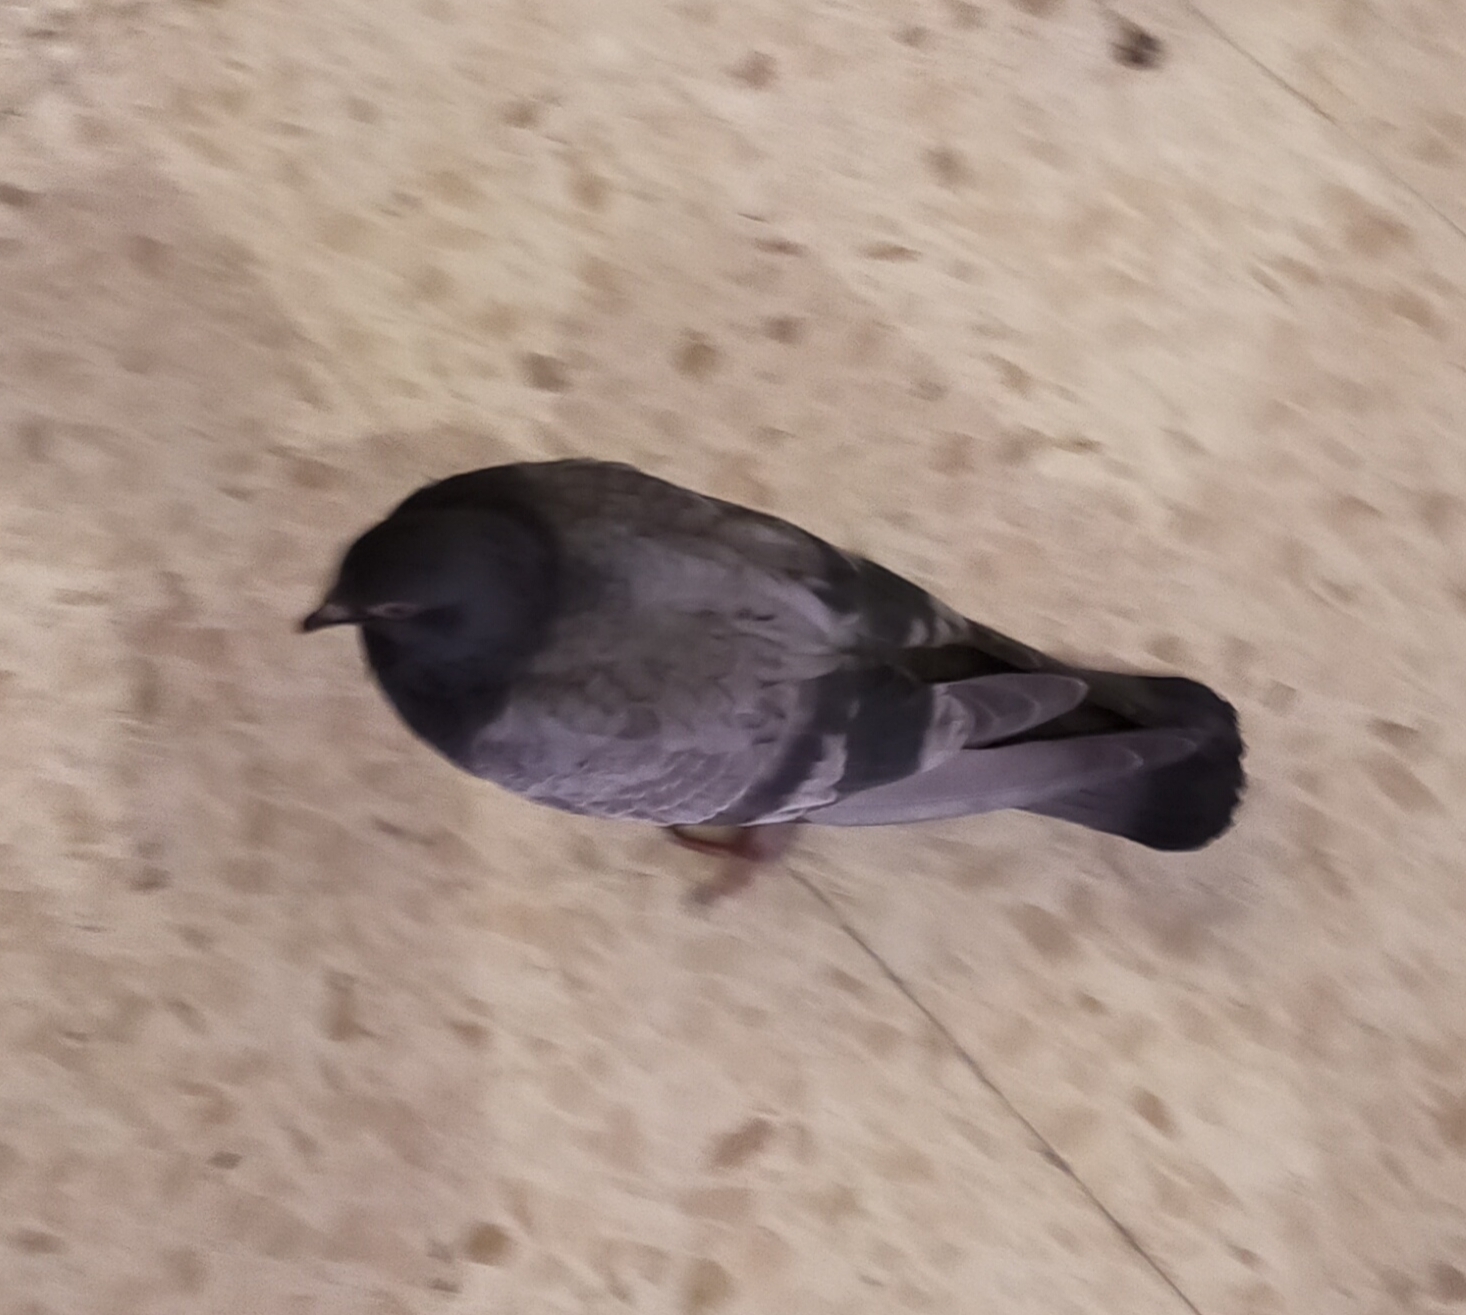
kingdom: Animalia
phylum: Chordata
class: Aves
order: Columbiformes
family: Columbidae
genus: Columba
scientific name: Columba livia
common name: Rock pigeon
